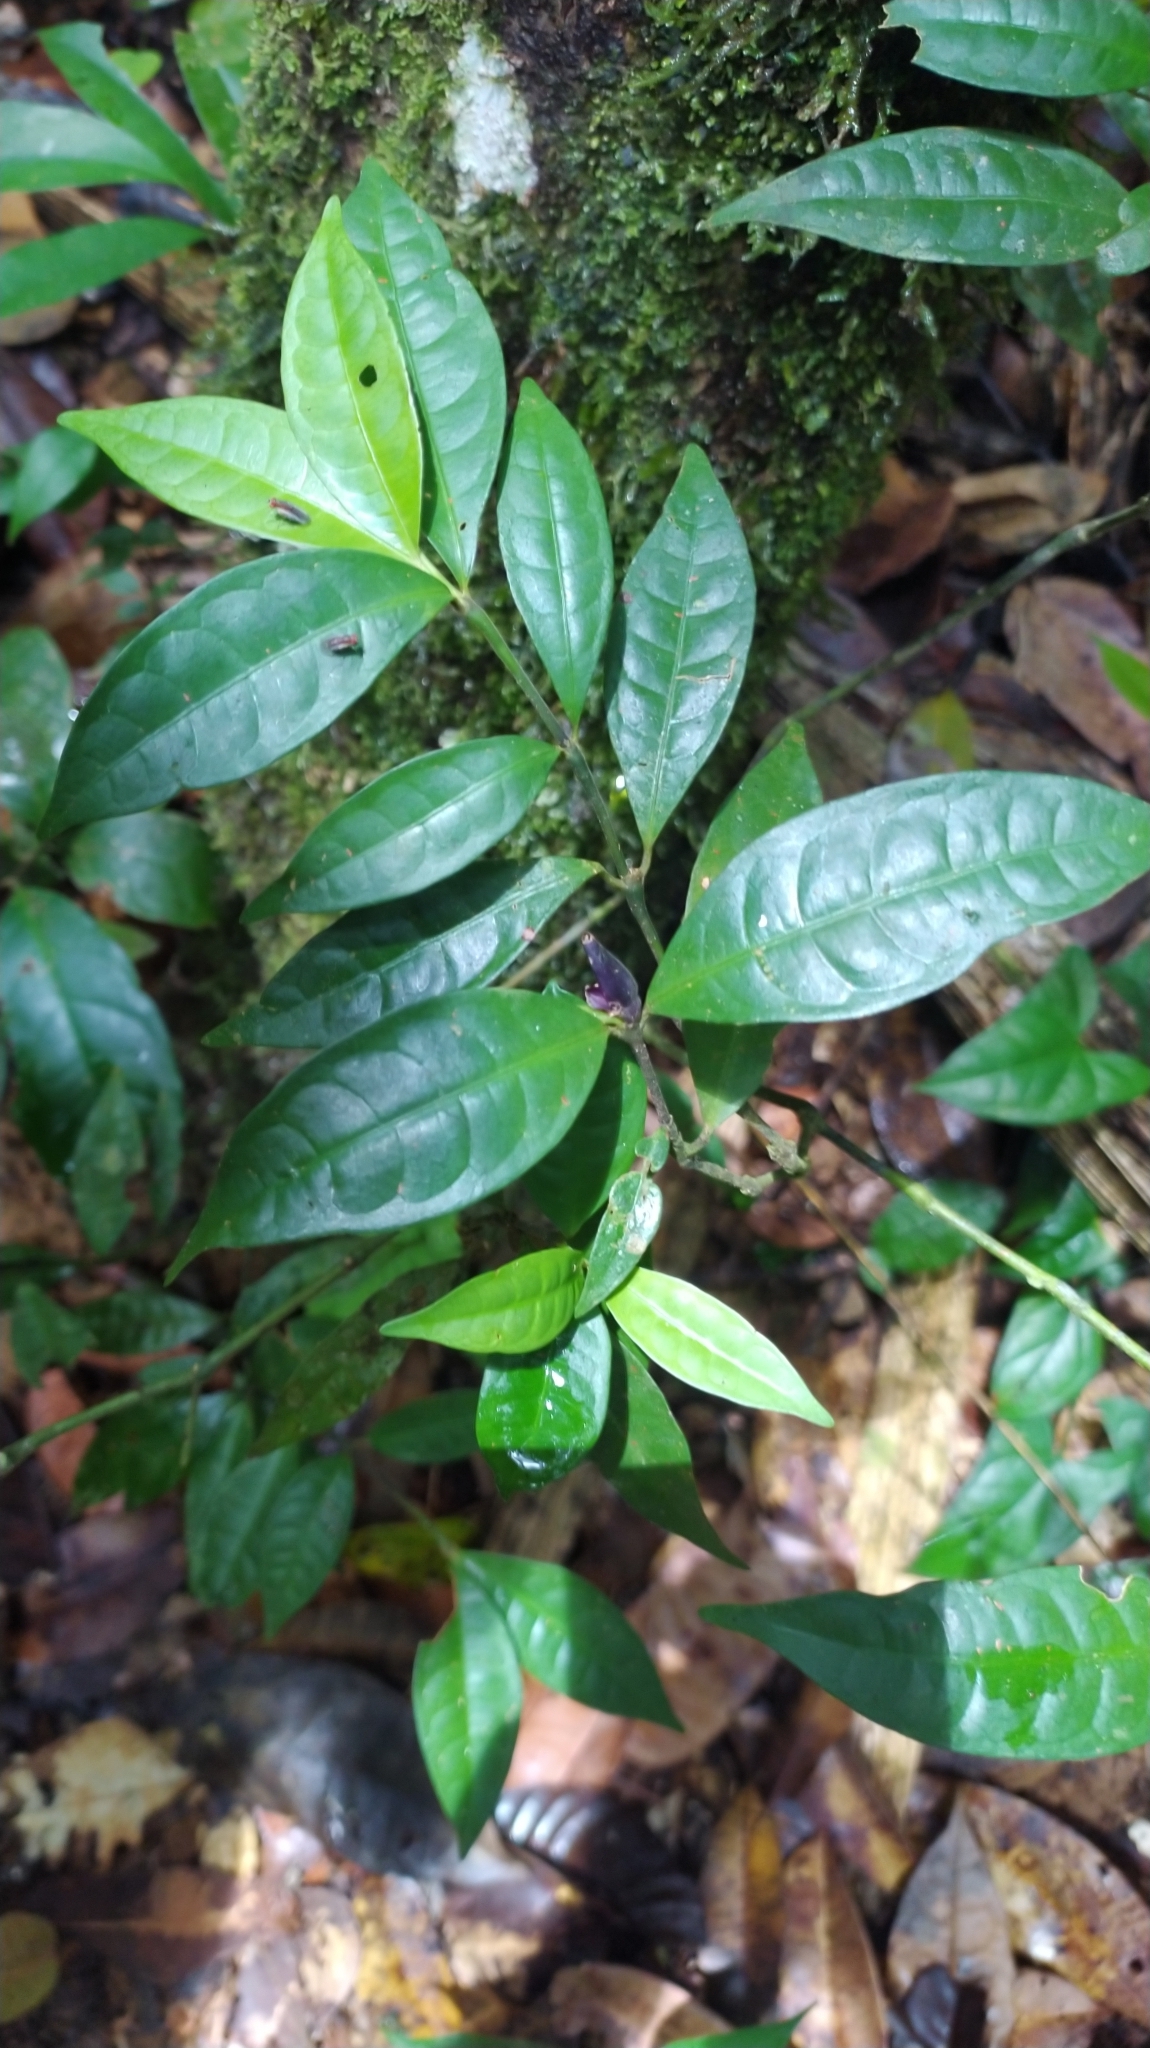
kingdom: Plantae
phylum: Tracheophyta
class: Magnoliopsida
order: Gentianales
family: Rubiaceae
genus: Palicourea
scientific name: Palicourea oblonga
